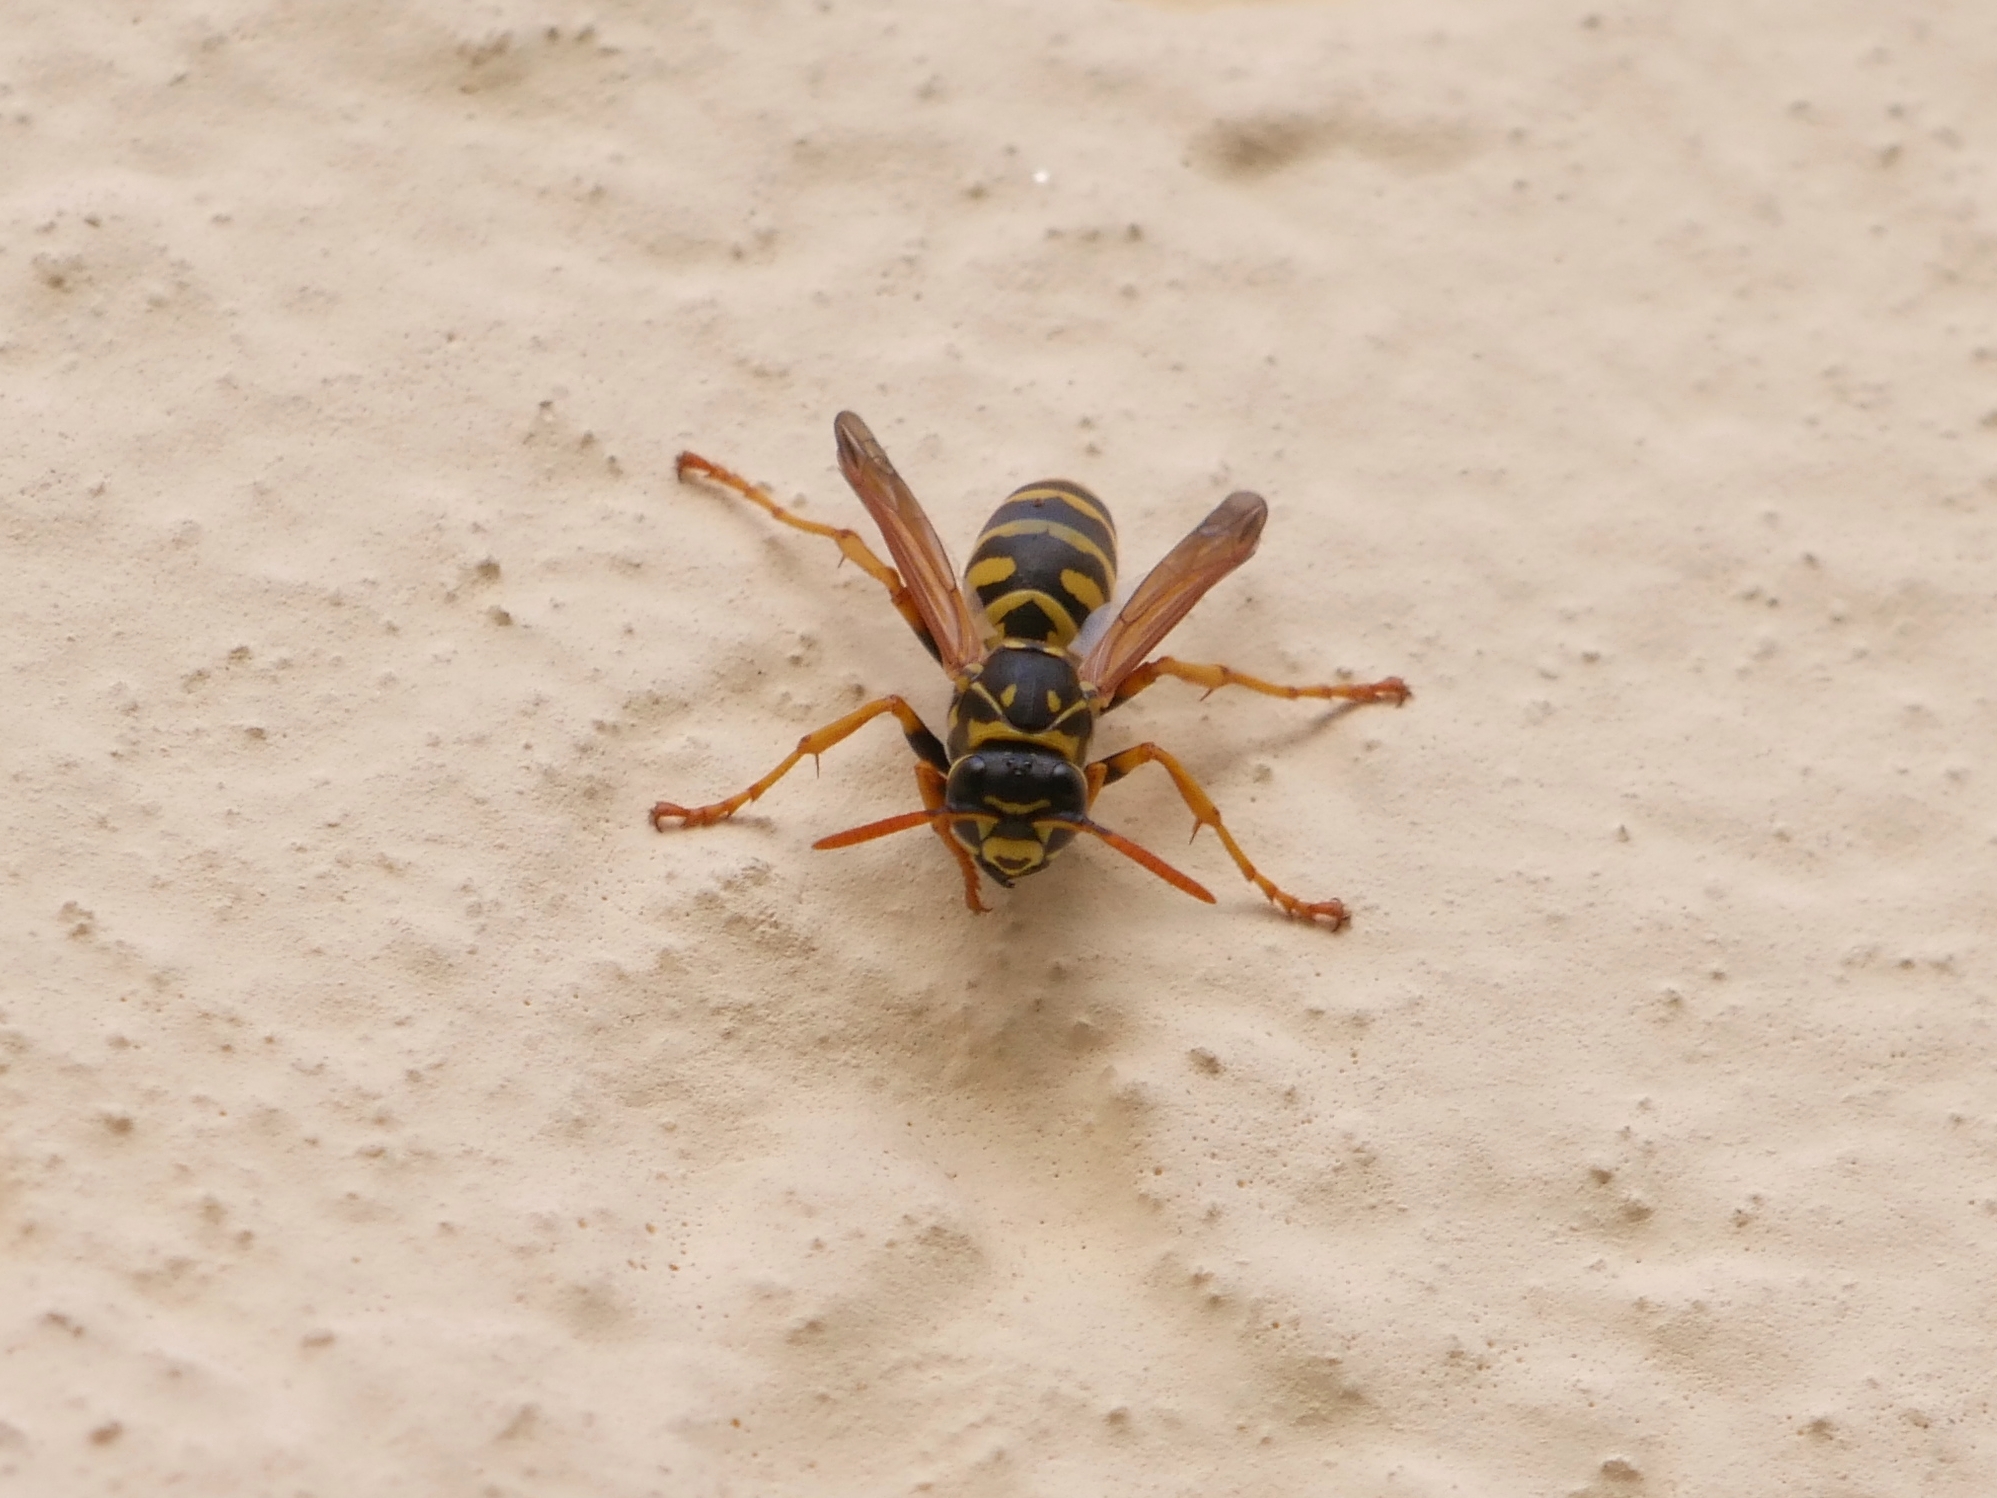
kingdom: Animalia
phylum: Arthropoda
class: Insecta
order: Hymenoptera
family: Eumenidae
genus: Polistes
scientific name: Polistes dominula
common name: Paper wasp
